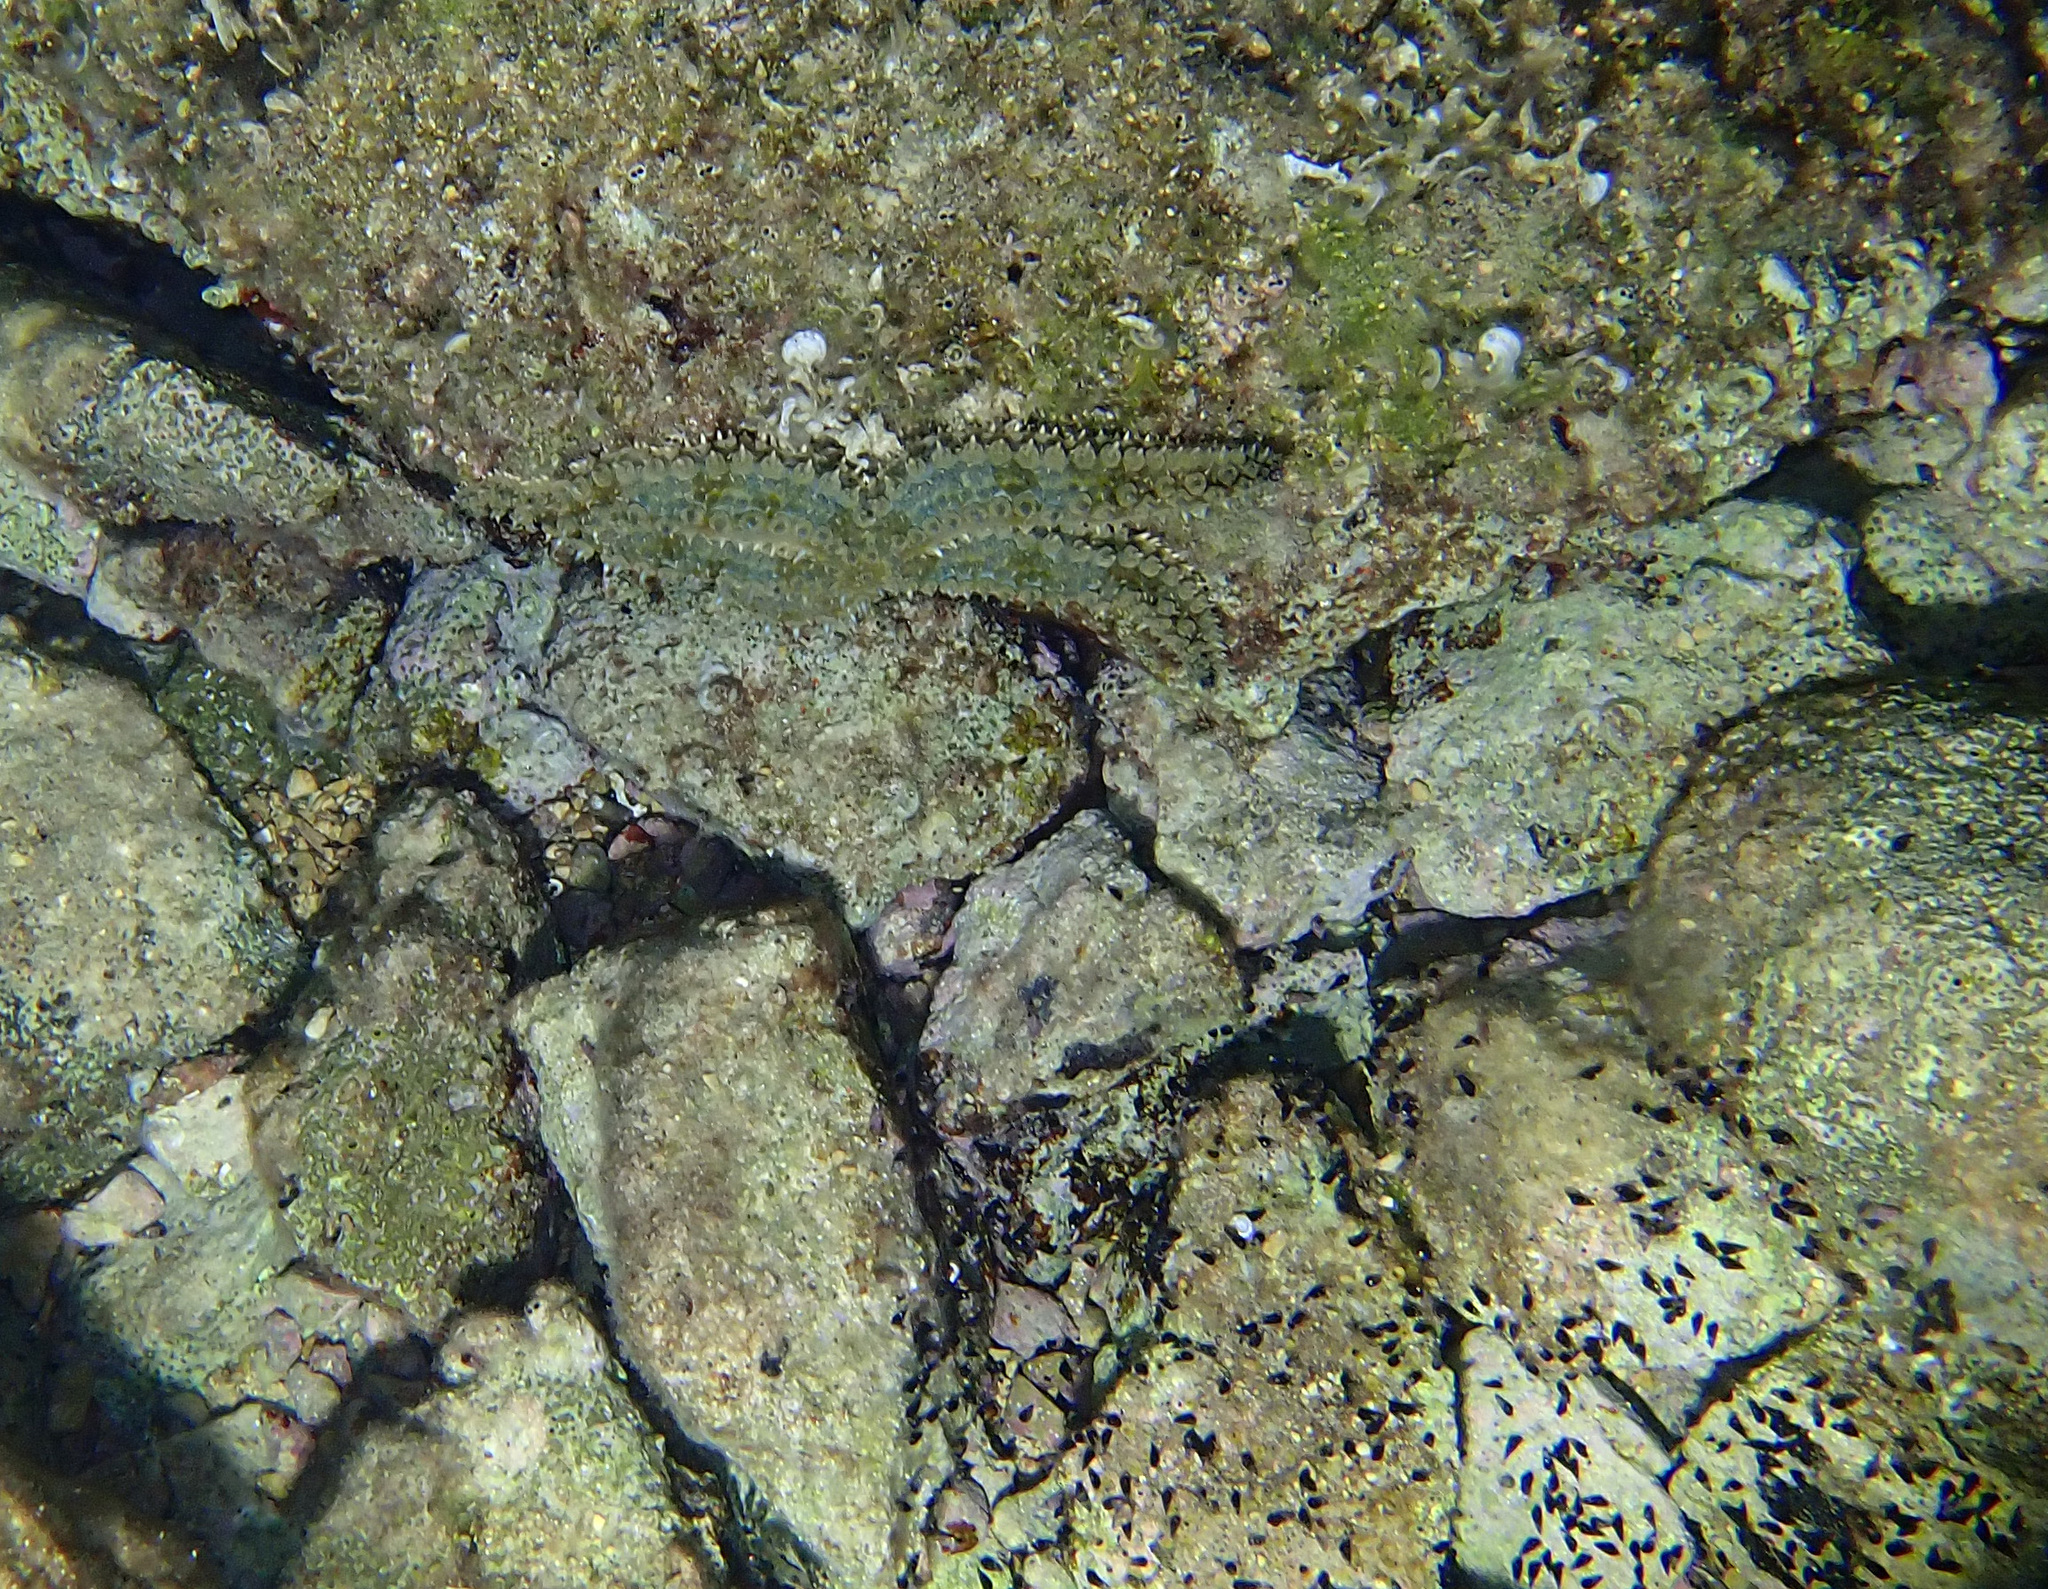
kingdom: Animalia
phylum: Echinodermata
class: Asteroidea
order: Forcipulatida
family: Asteriidae
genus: Marthasterias
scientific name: Marthasterias glacialis
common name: Spiny starfish
